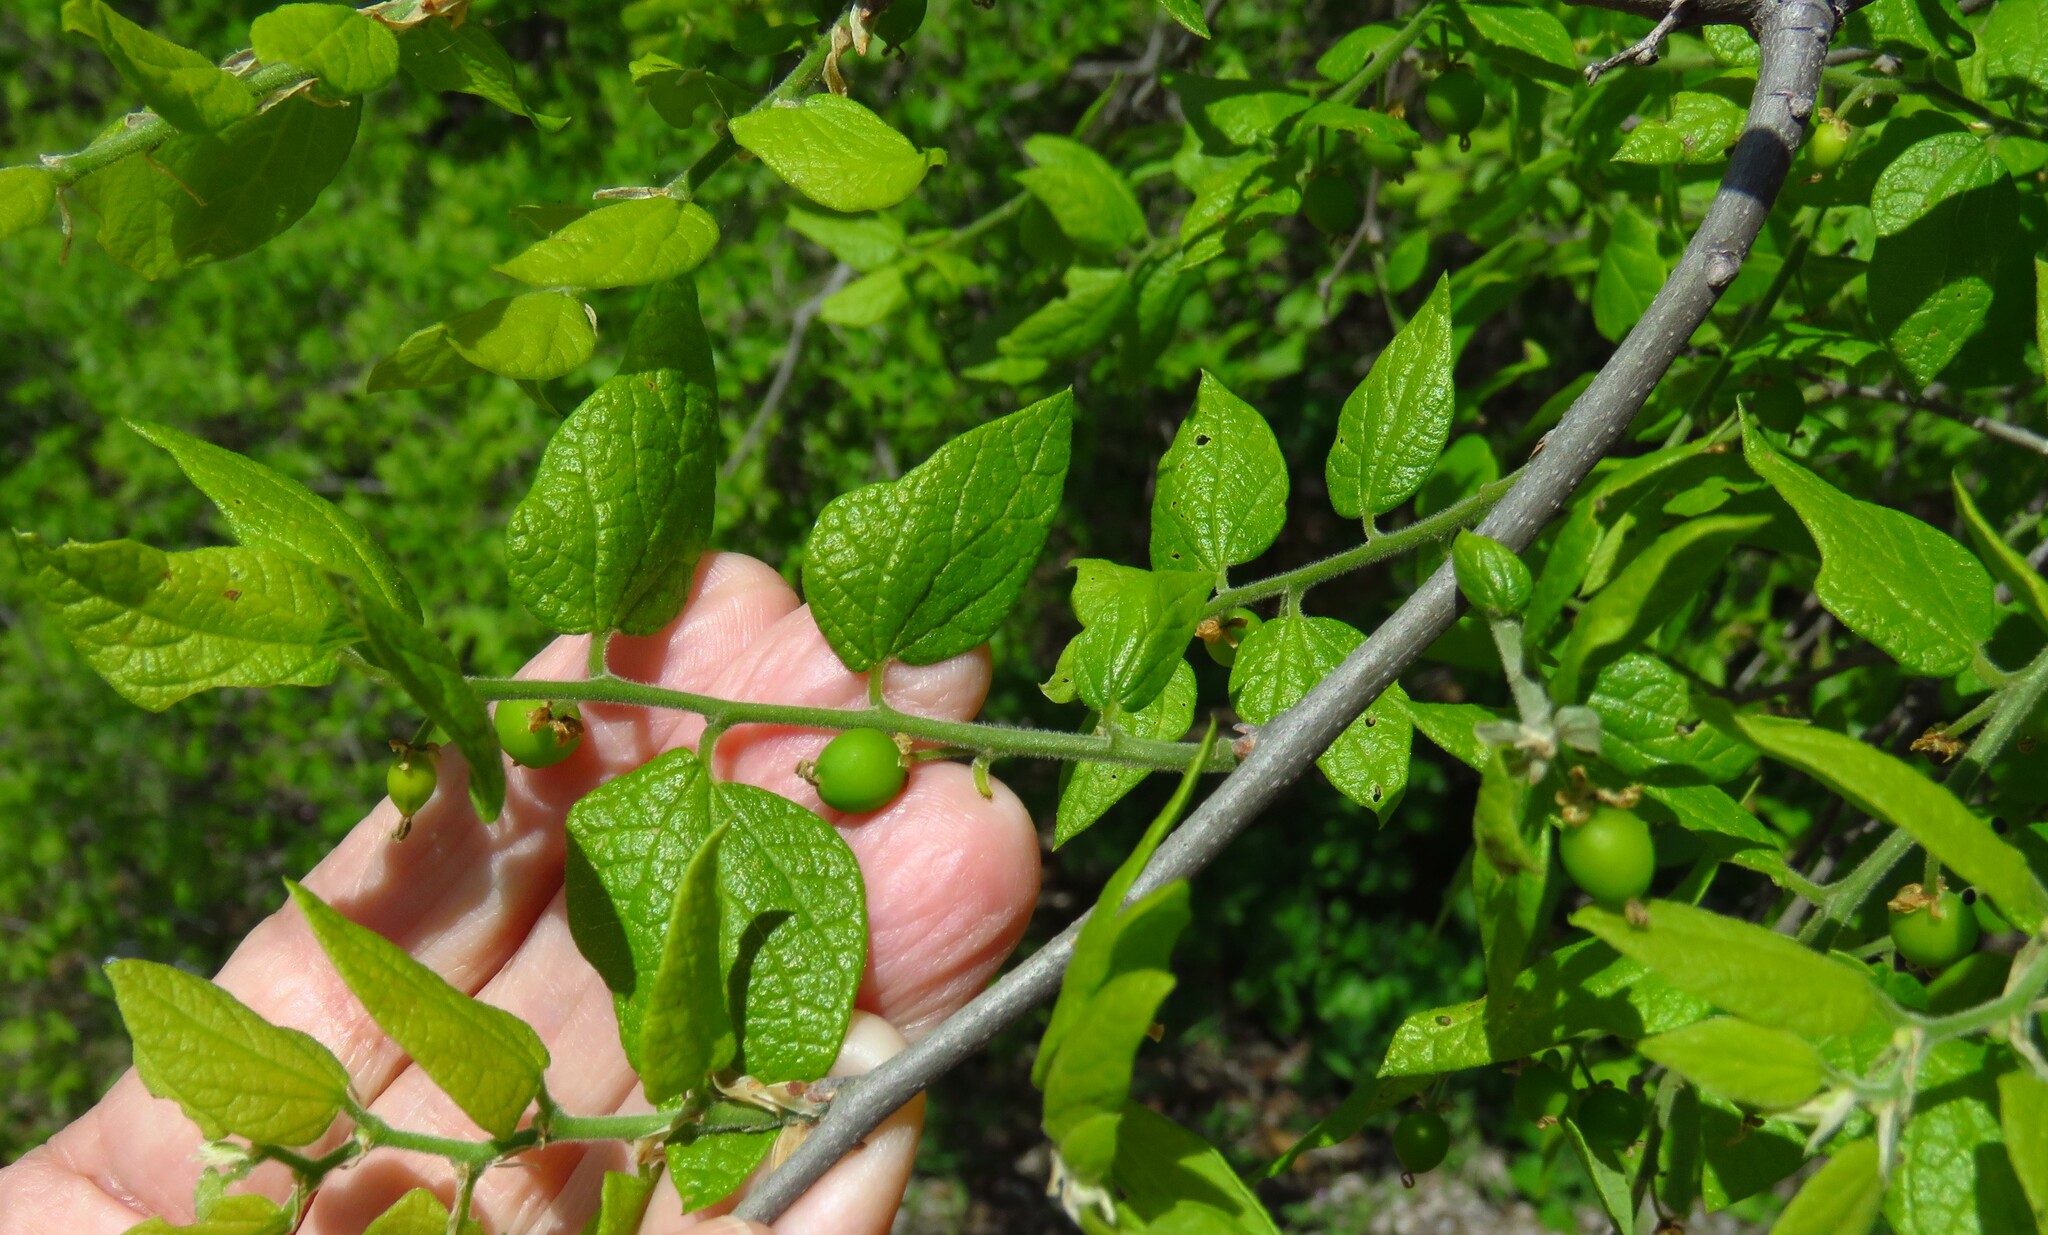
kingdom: Plantae
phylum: Tracheophyta
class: Magnoliopsida
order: Rosales
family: Cannabaceae
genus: Celtis
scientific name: Celtis reticulata
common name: Netleaf hackberry
